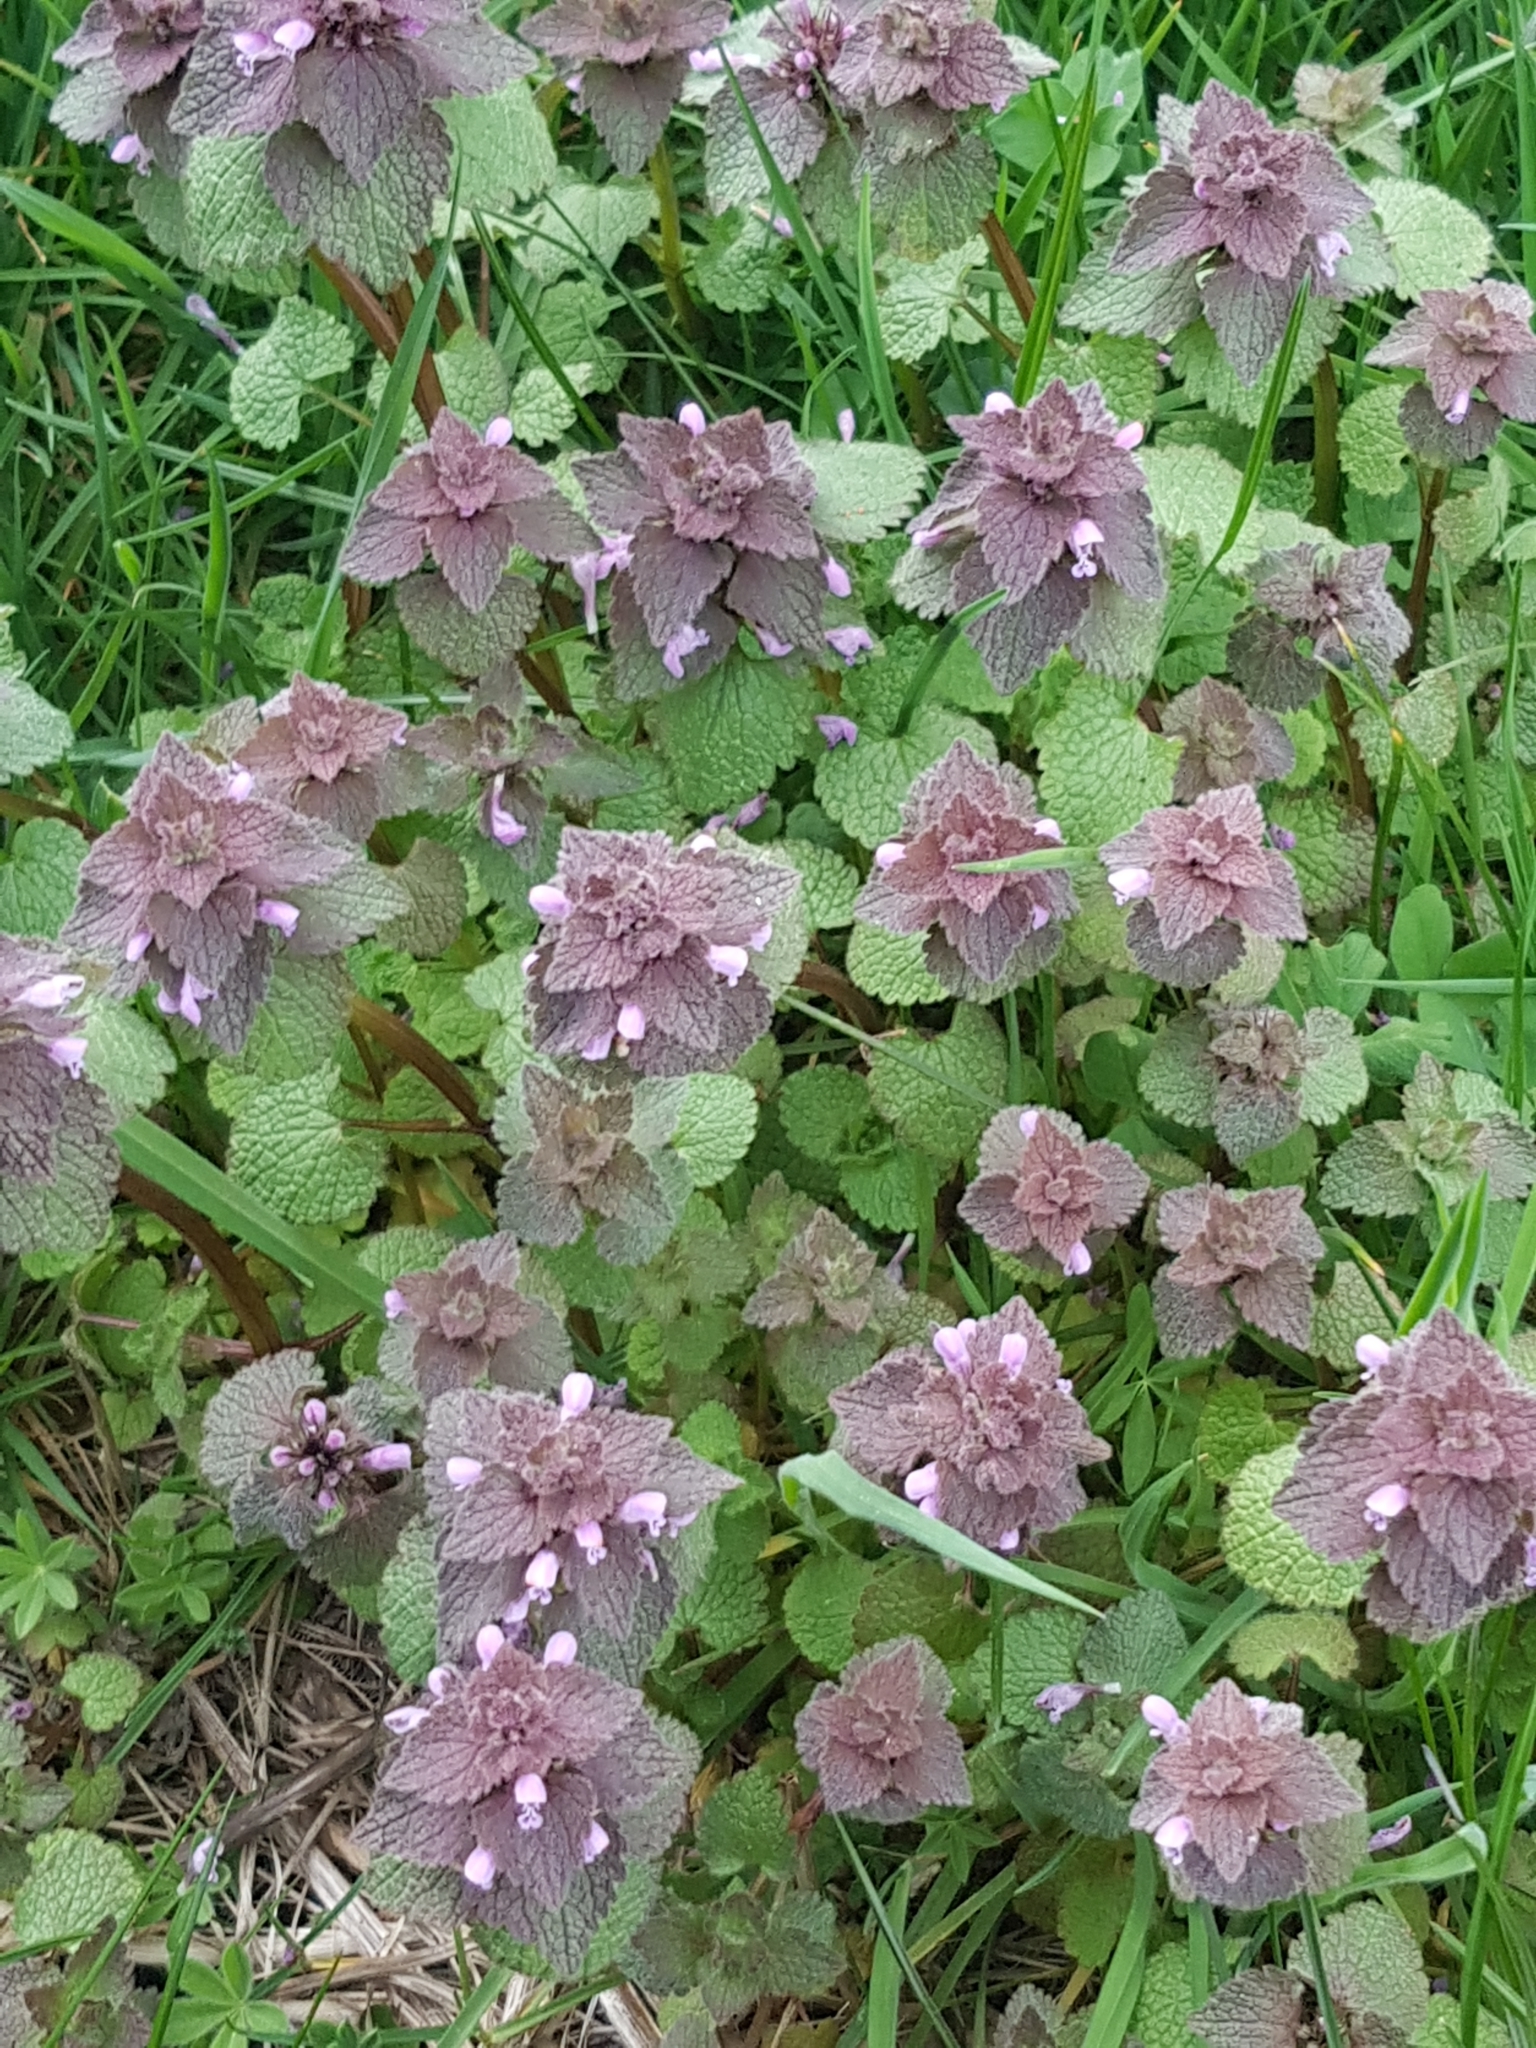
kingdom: Plantae
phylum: Tracheophyta
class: Magnoliopsida
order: Lamiales
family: Lamiaceae
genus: Lamium
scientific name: Lamium purpureum
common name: Red dead-nettle
